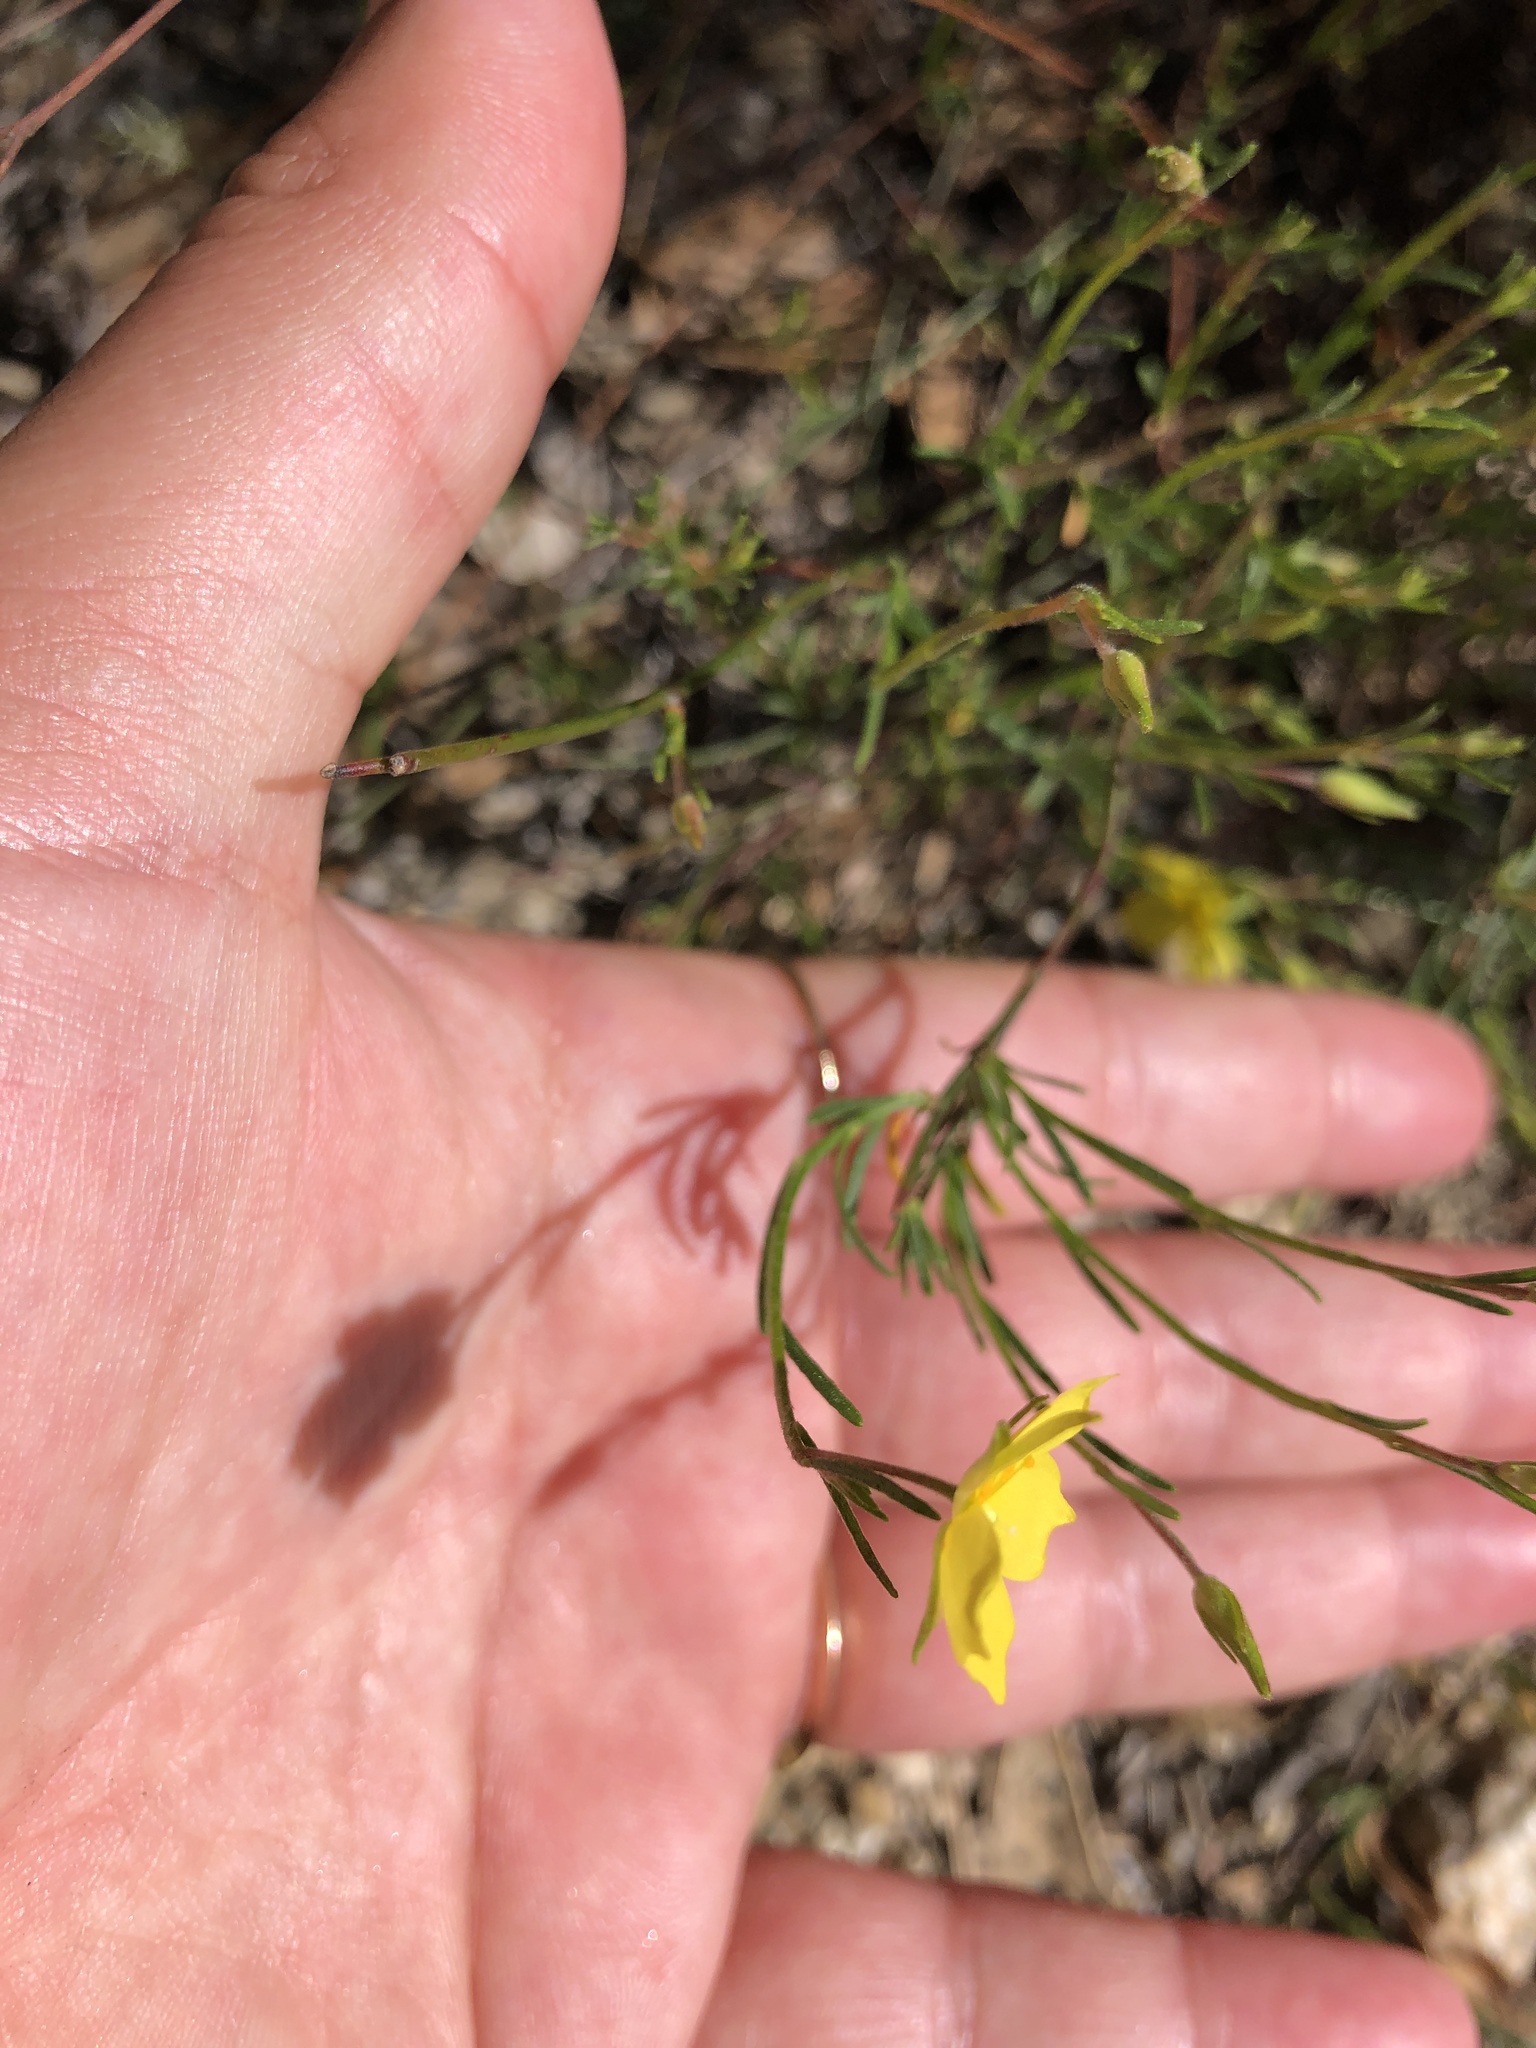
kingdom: Plantae
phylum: Tracheophyta
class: Magnoliopsida
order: Malvales
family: Cistaceae
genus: Crocanthemum
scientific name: Crocanthemum scoparium
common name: Broom-rose
